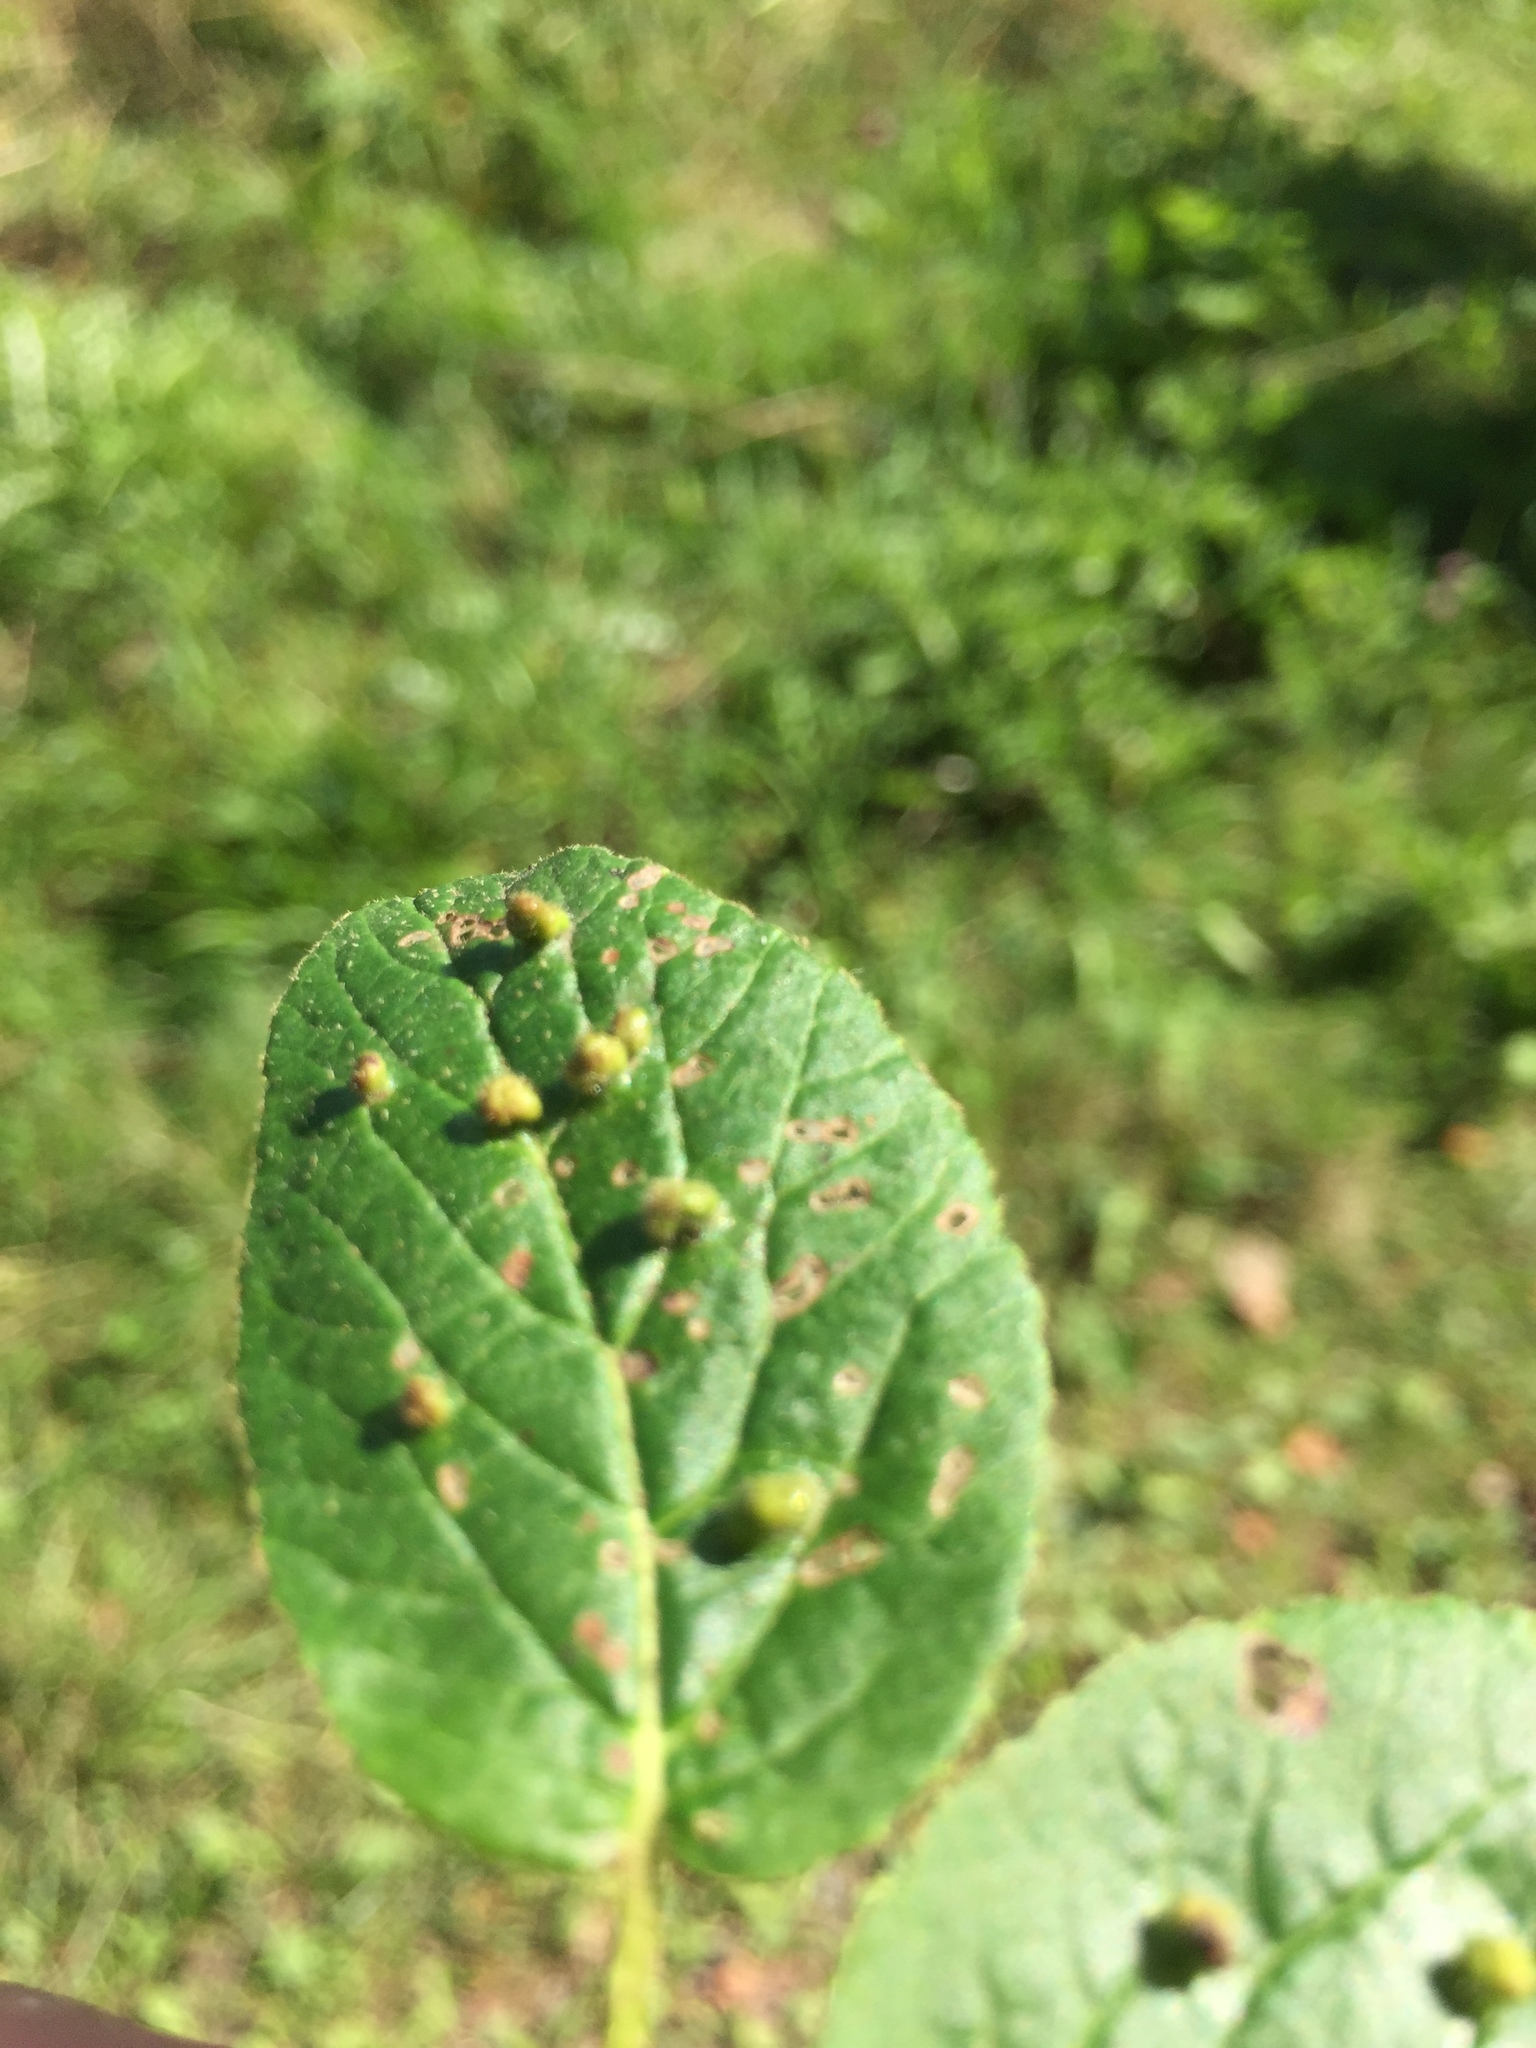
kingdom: Animalia
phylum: Arthropoda
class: Arachnida
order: Trombidiformes
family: Eriophyidae
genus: Eriophyes
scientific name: Eriophyes viburni
